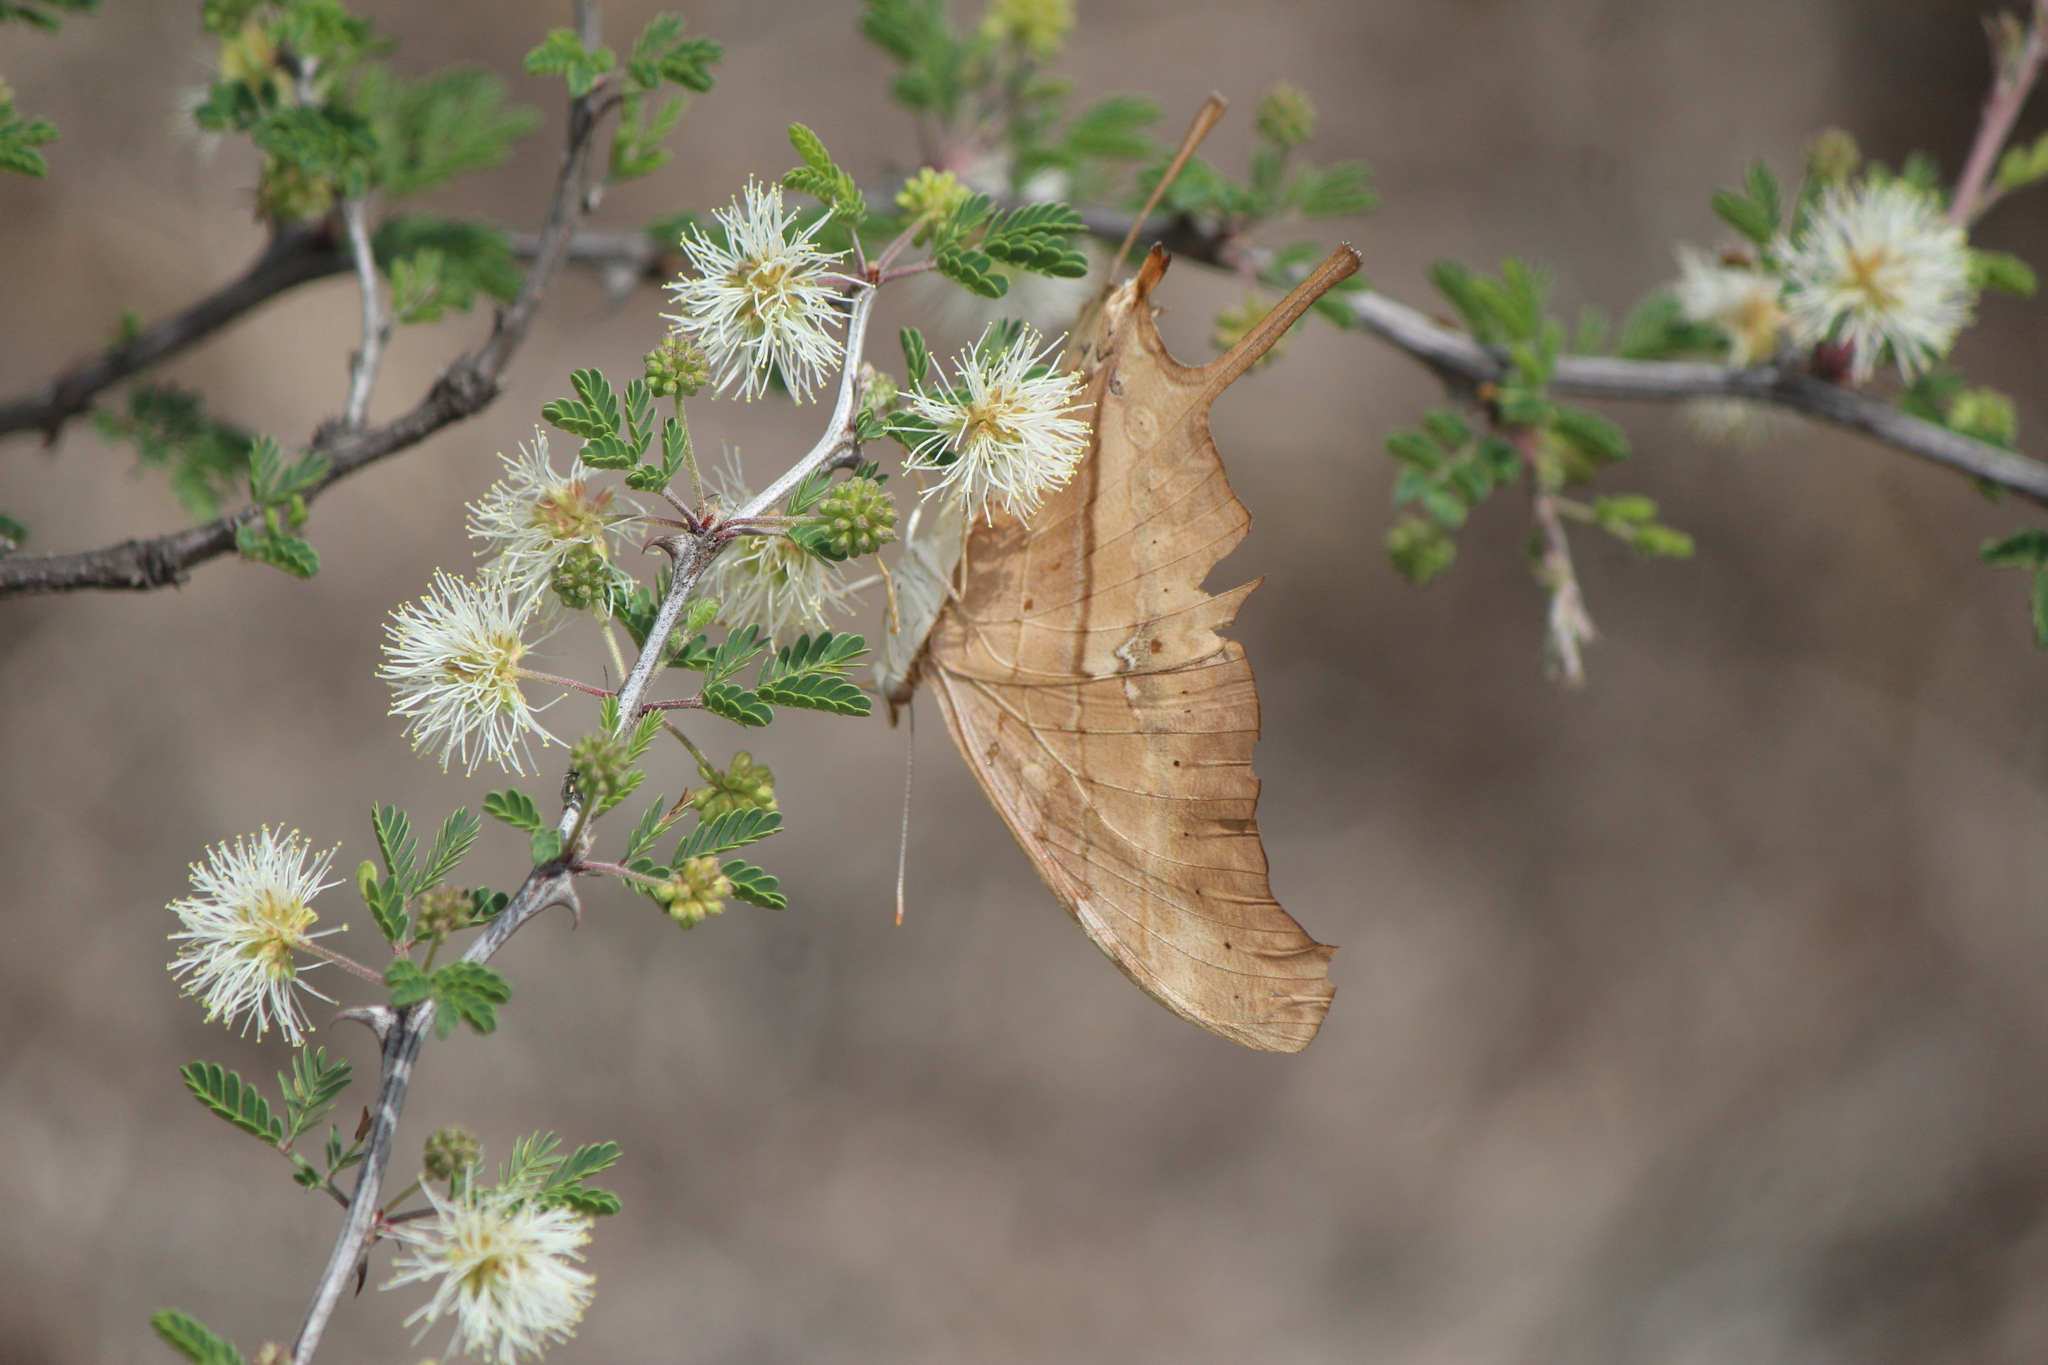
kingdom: Animalia
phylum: Arthropoda
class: Insecta
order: Lepidoptera
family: Nymphalidae
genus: Marpesia
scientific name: Marpesia petreus
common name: Red dagger wing
